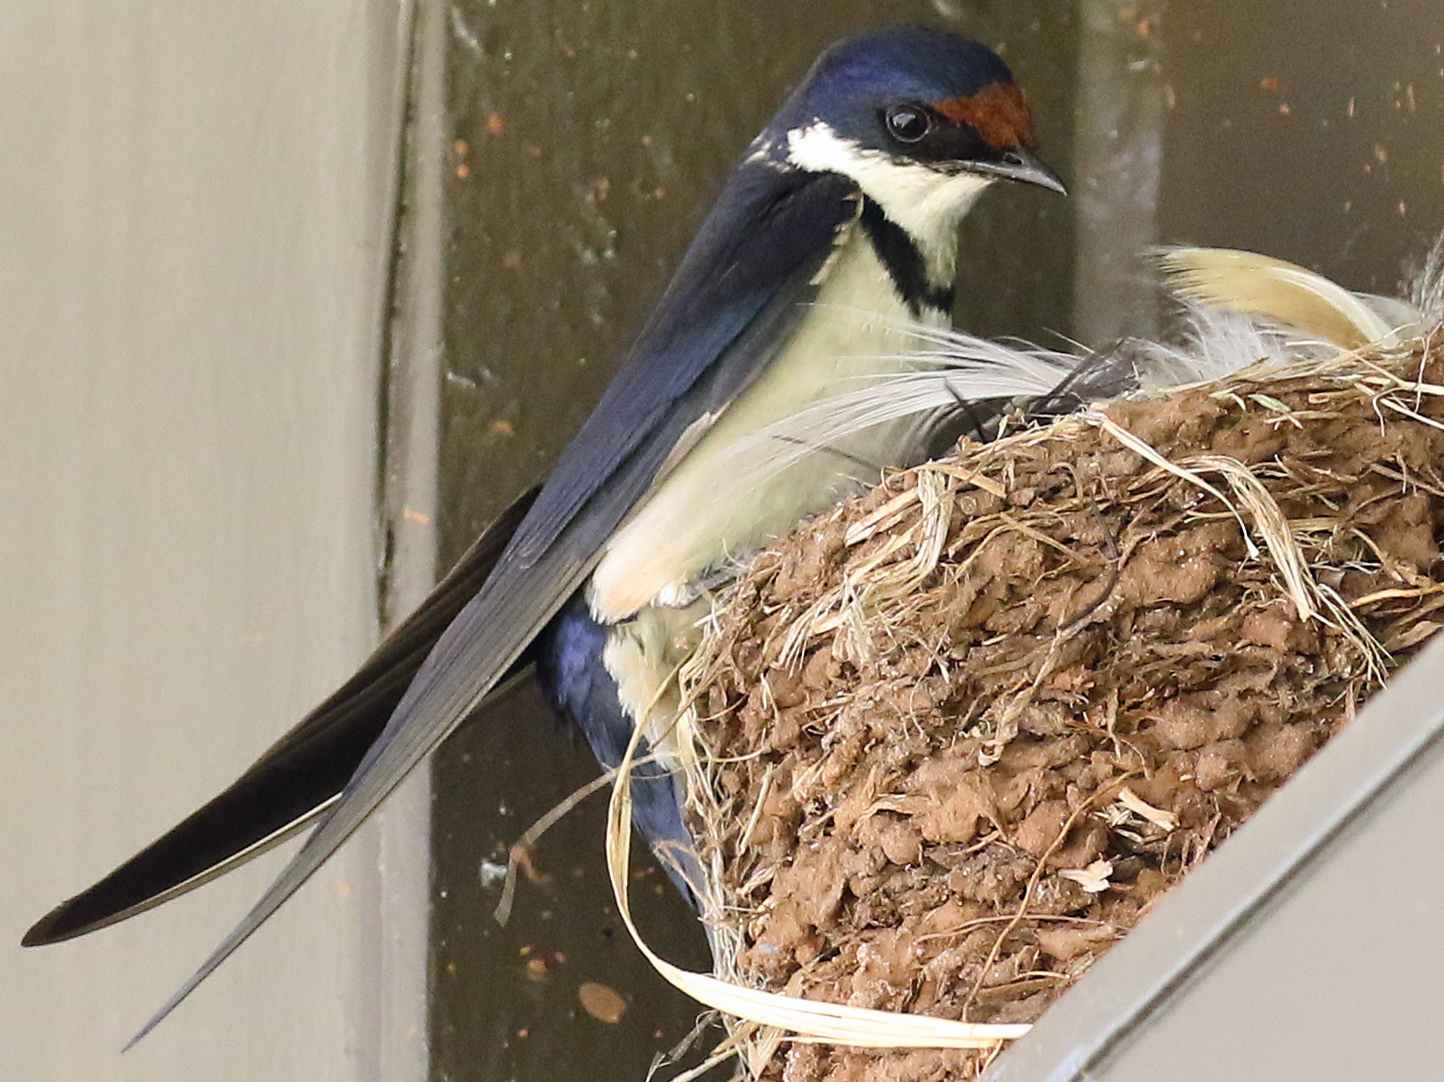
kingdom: Animalia
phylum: Chordata
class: Aves
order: Passeriformes
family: Hirundinidae
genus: Hirundo
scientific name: Hirundo albigularis
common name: White-throated swallow
